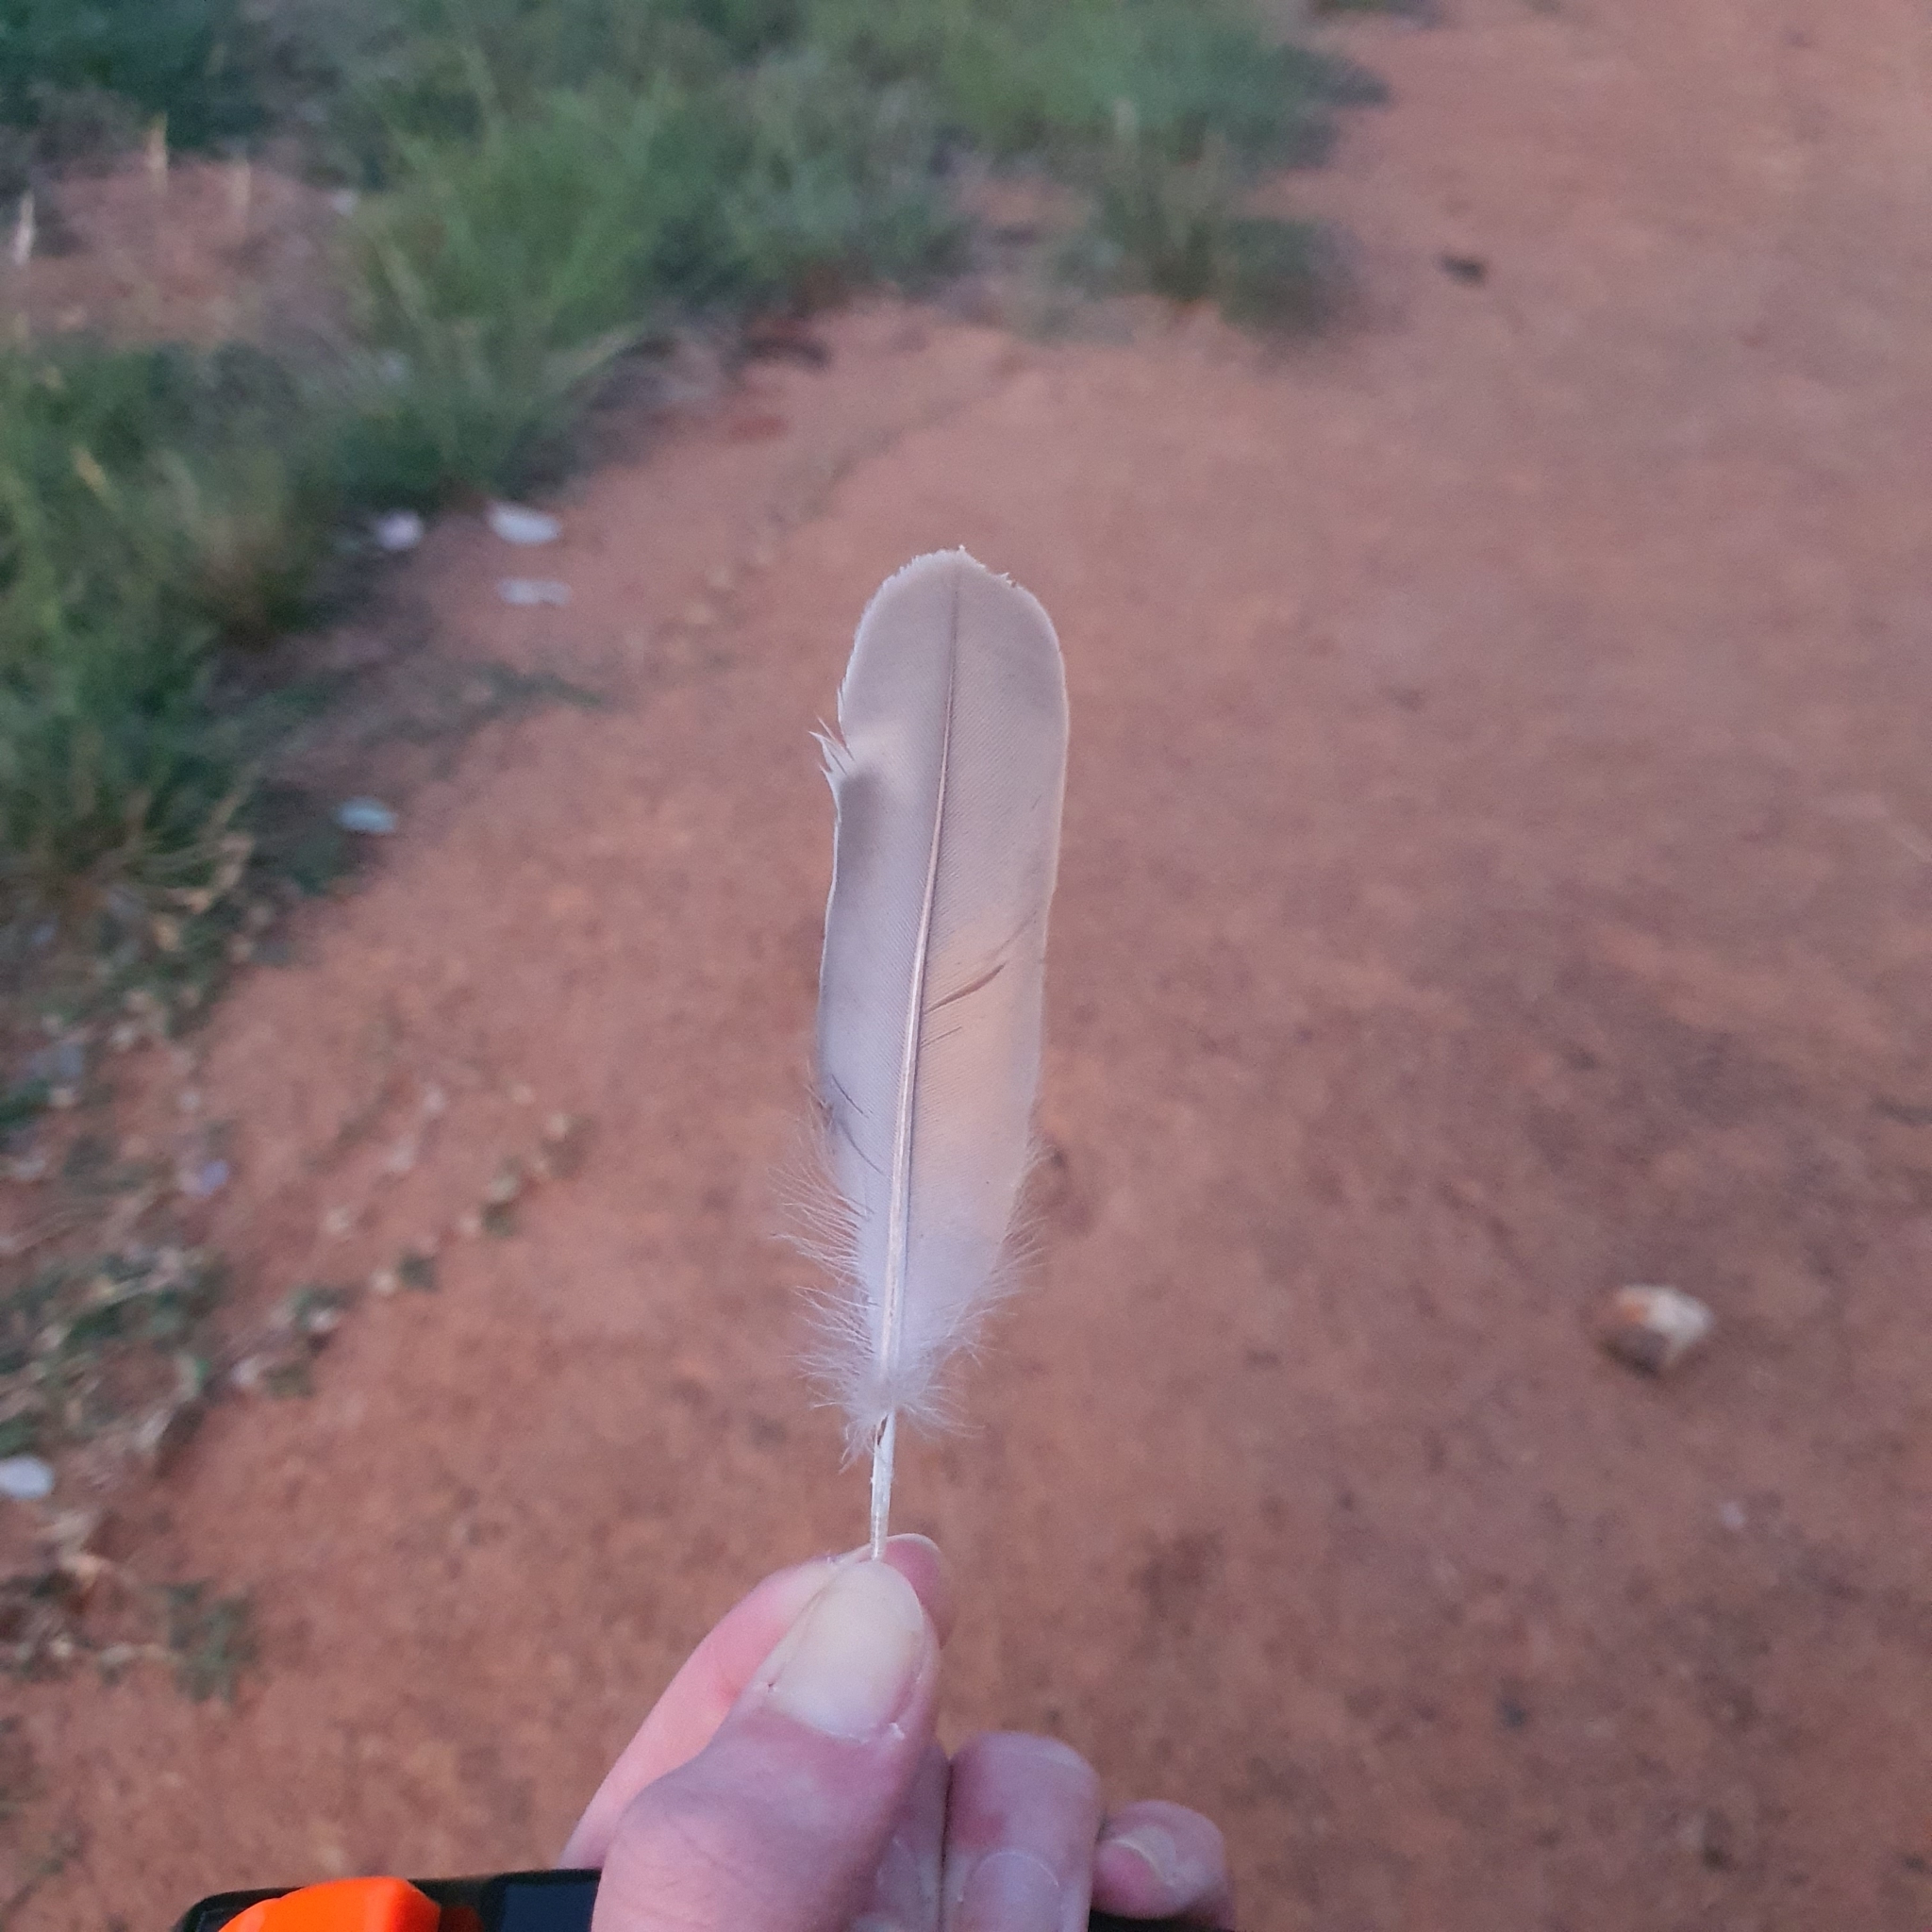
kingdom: Animalia
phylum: Chordata
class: Aves
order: Columbiformes
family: Columbidae
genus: Phaps
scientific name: Phaps chalcoptera
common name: Common bronzewing
